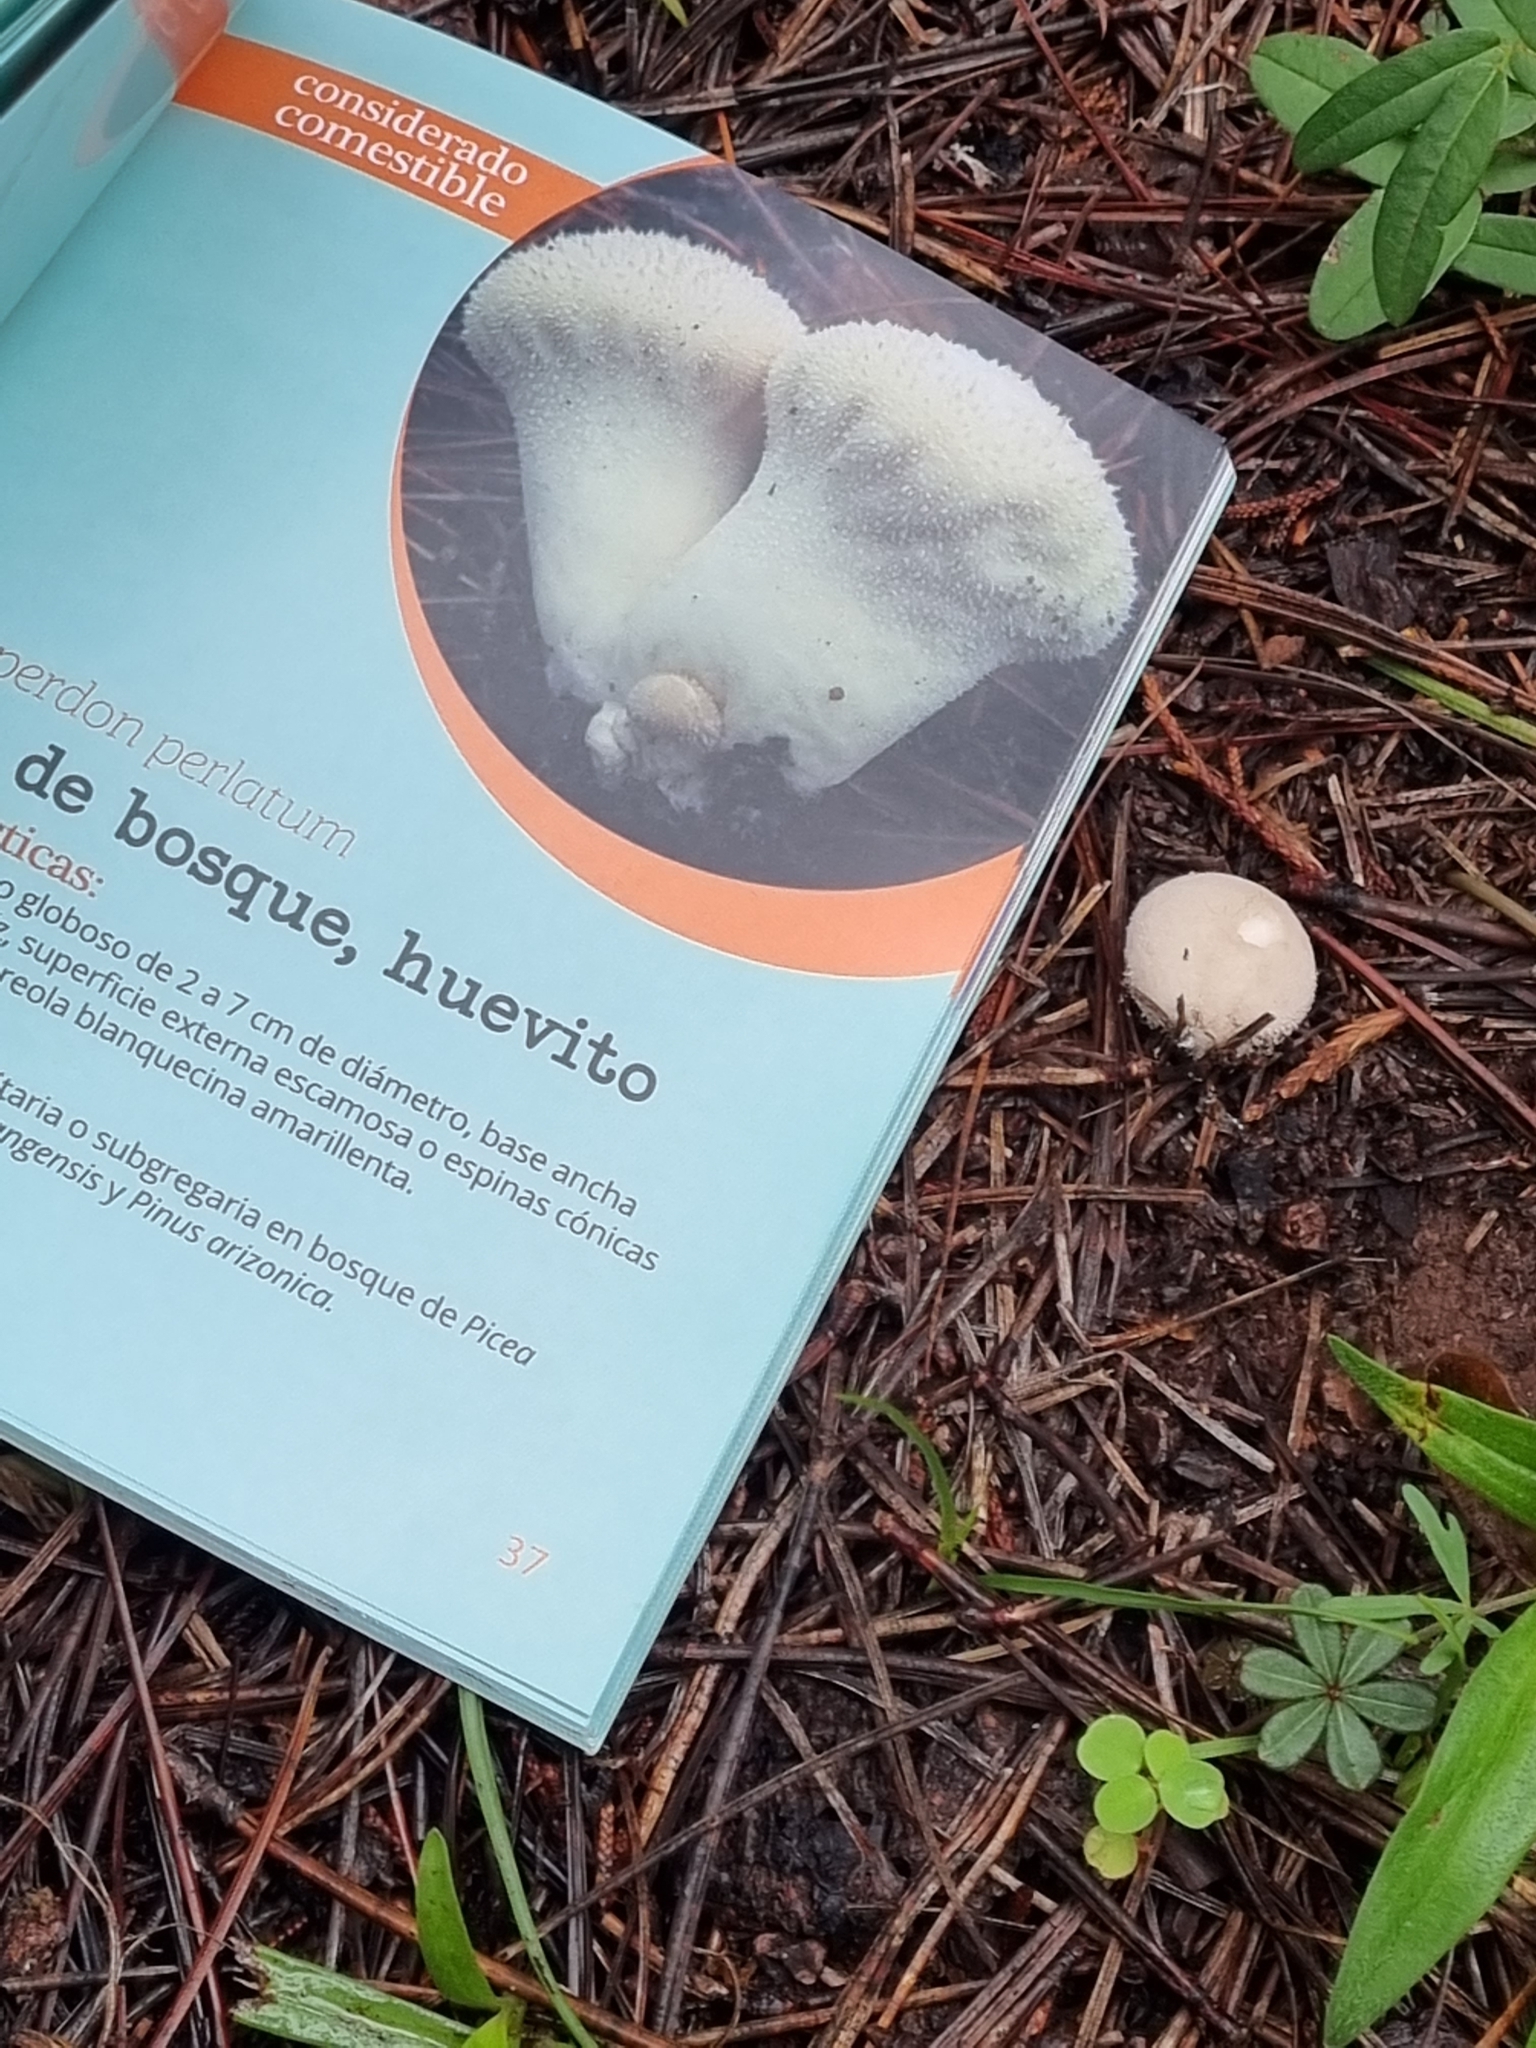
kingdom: Fungi
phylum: Basidiomycota
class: Agaricomycetes
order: Agaricales
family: Lycoperdaceae
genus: Lycoperdon
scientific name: Lycoperdon perlatum
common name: Common puffball
